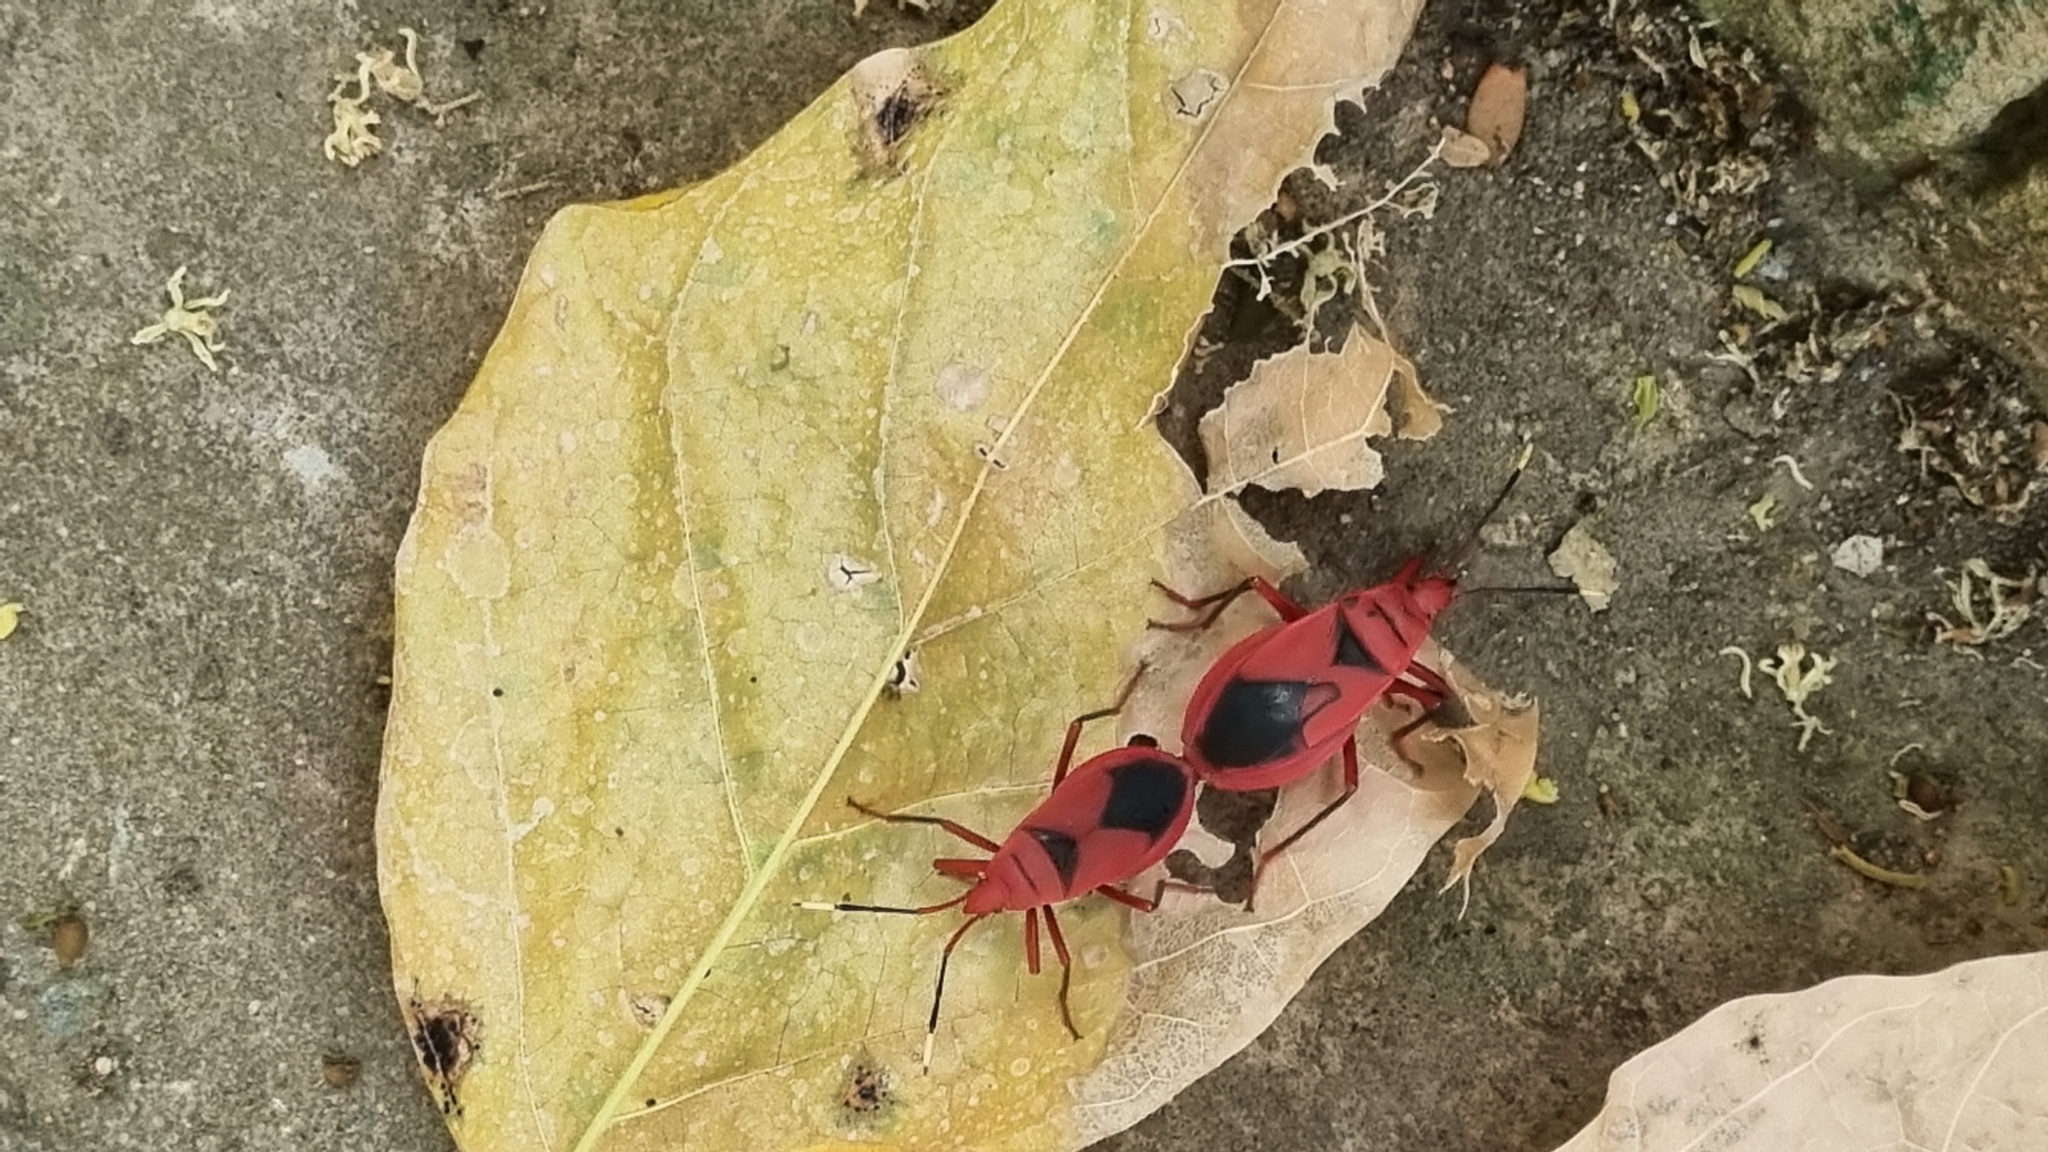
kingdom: Animalia
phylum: Arthropoda
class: Insecta
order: Hemiptera
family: Pyrrhocoridae
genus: Probergrothius
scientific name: Probergrothius
